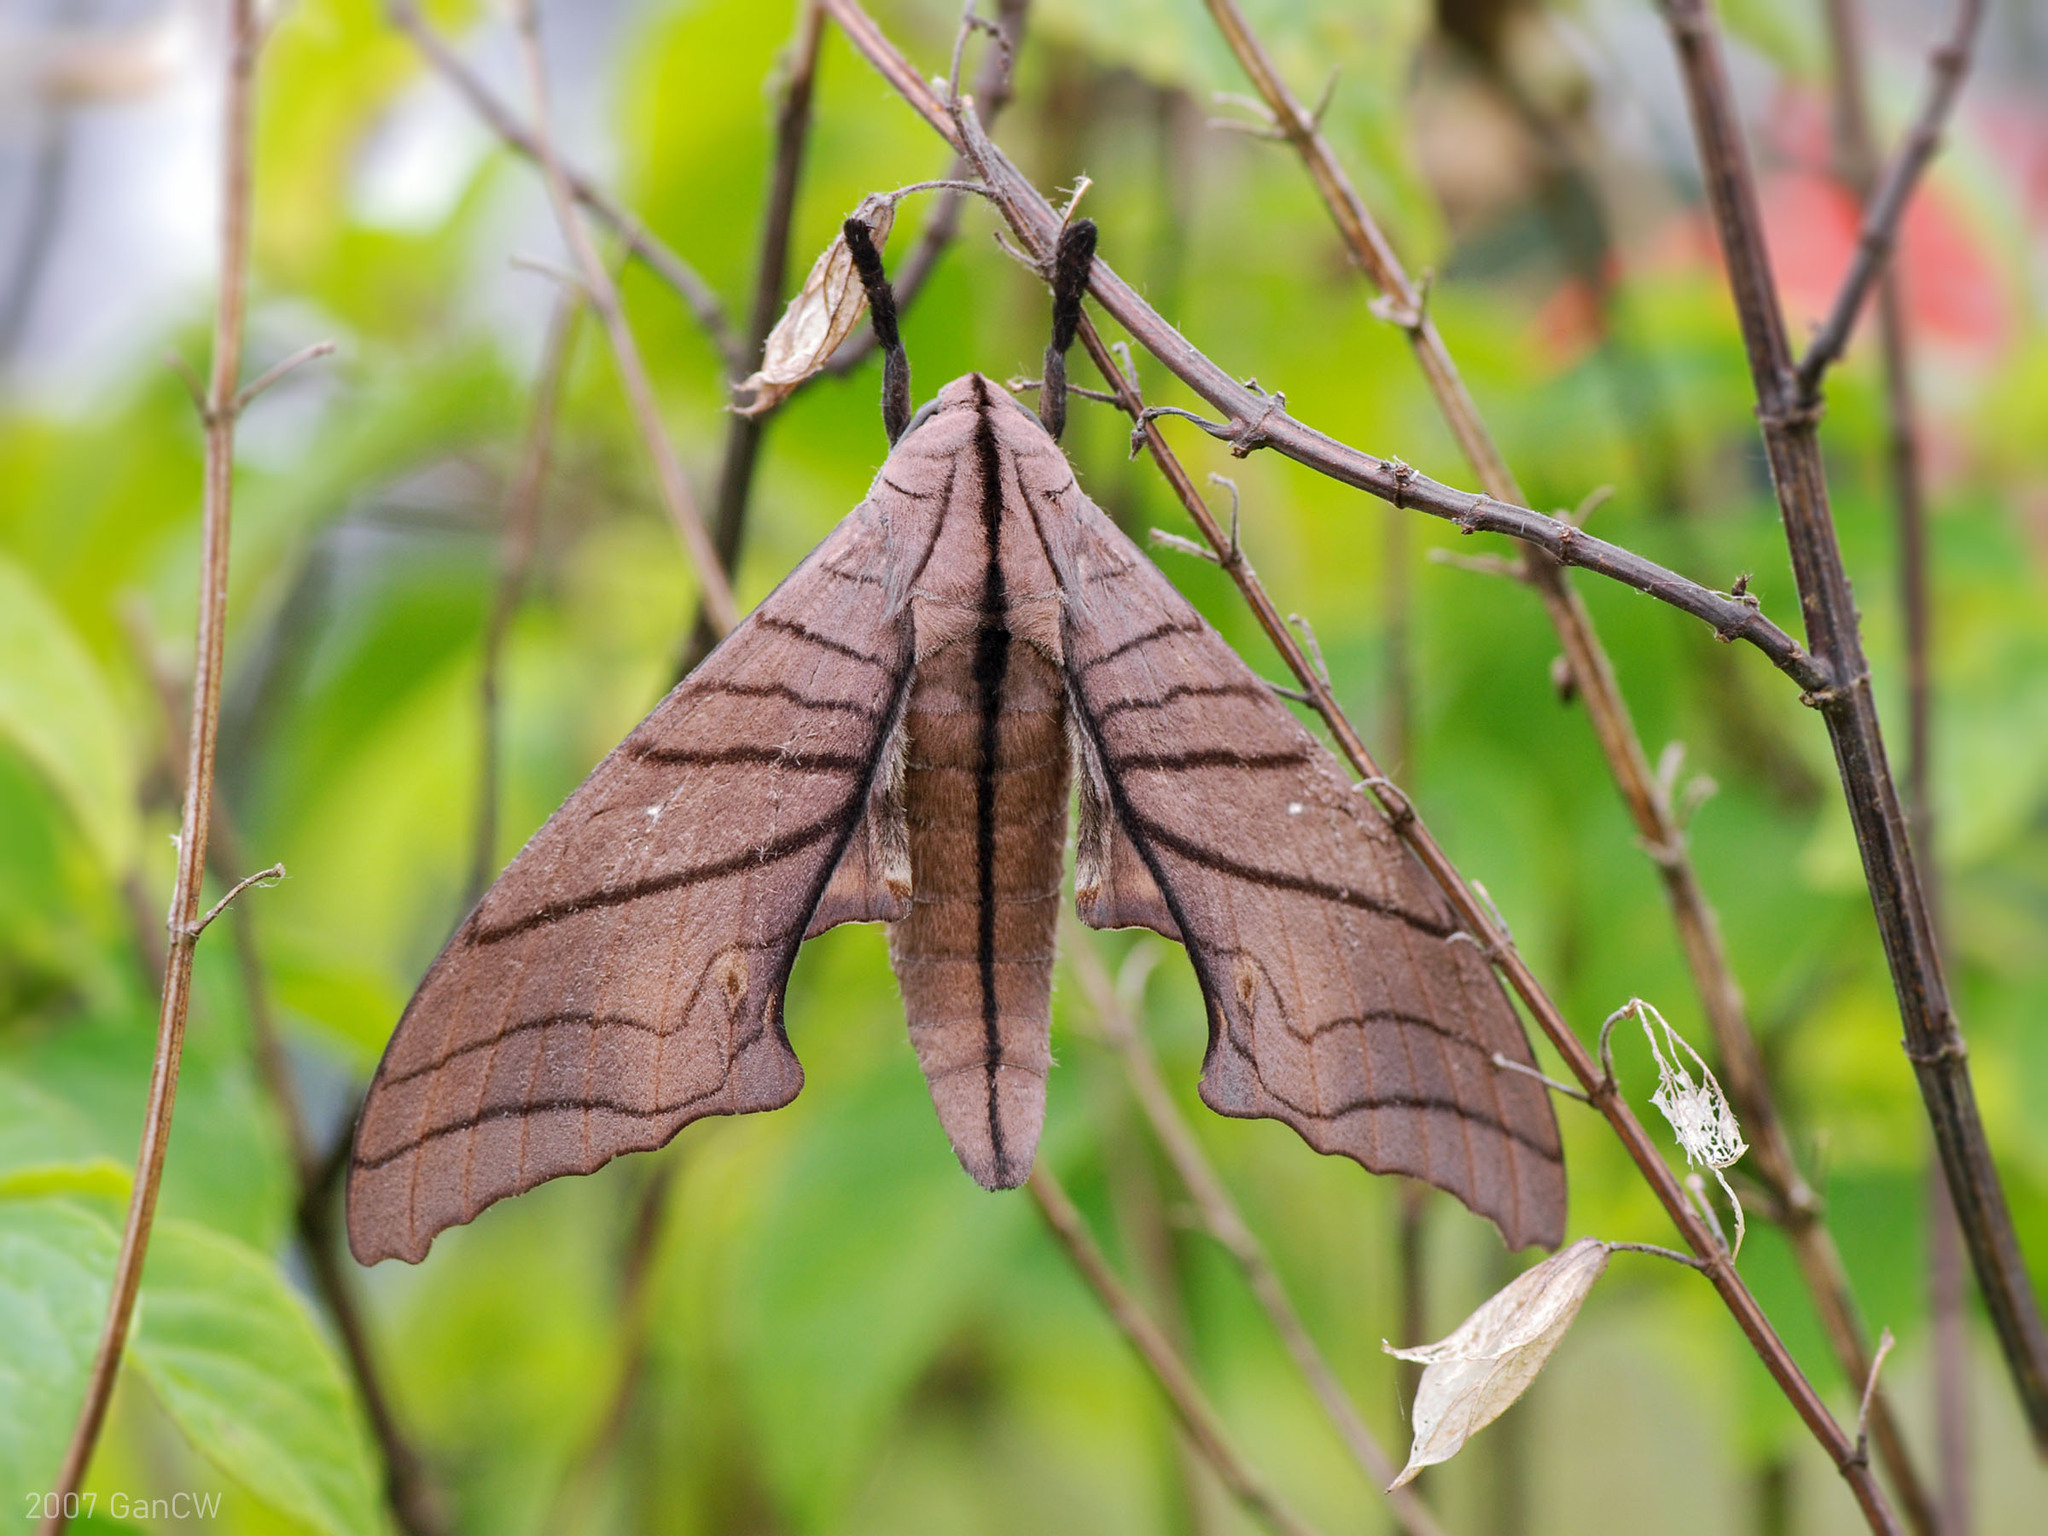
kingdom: Animalia
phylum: Arthropoda
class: Insecta
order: Lepidoptera
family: Sphingidae
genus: Marumba
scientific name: Marumba cristata
